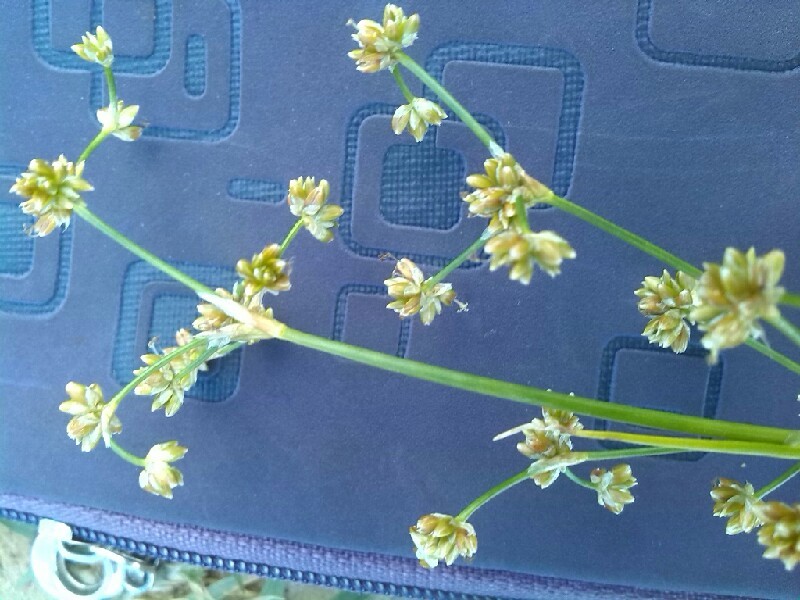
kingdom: Plantae
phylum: Tracheophyta
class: Liliopsida
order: Poales
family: Juncaceae
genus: Juncus
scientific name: Juncus subnodulosus
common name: Blunt-flowered rush
